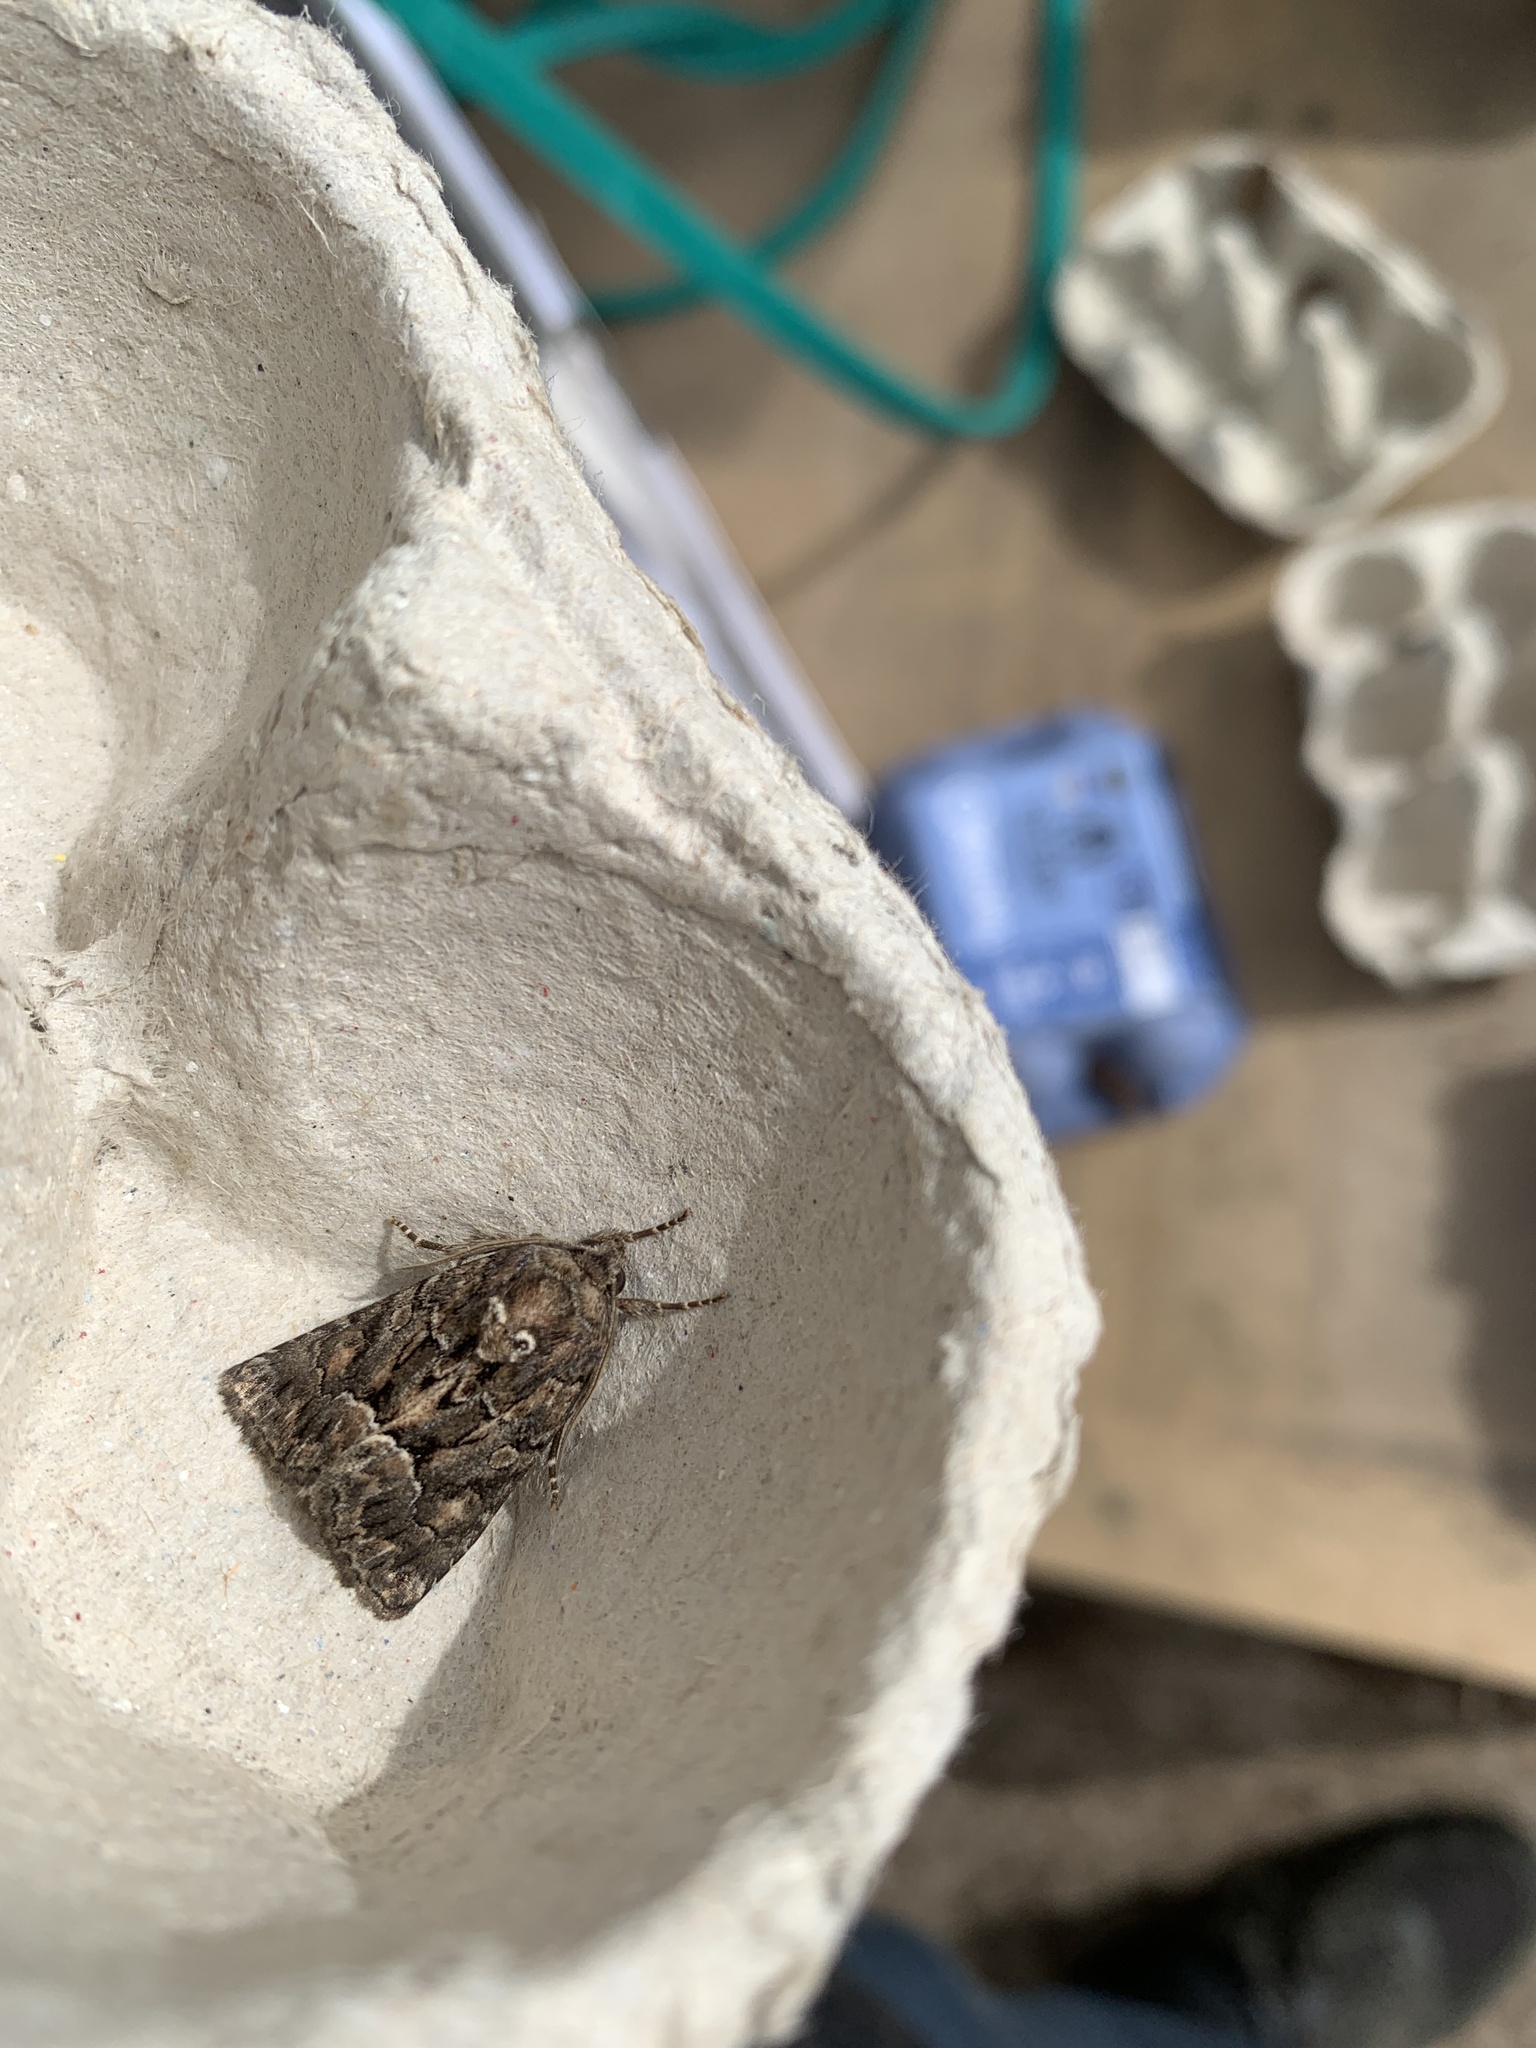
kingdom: Animalia
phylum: Arthropoda
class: Insecta
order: Lepidoptera
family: Noctuidae
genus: Thalpophila
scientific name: Thalpophila matura
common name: Straw underwing
